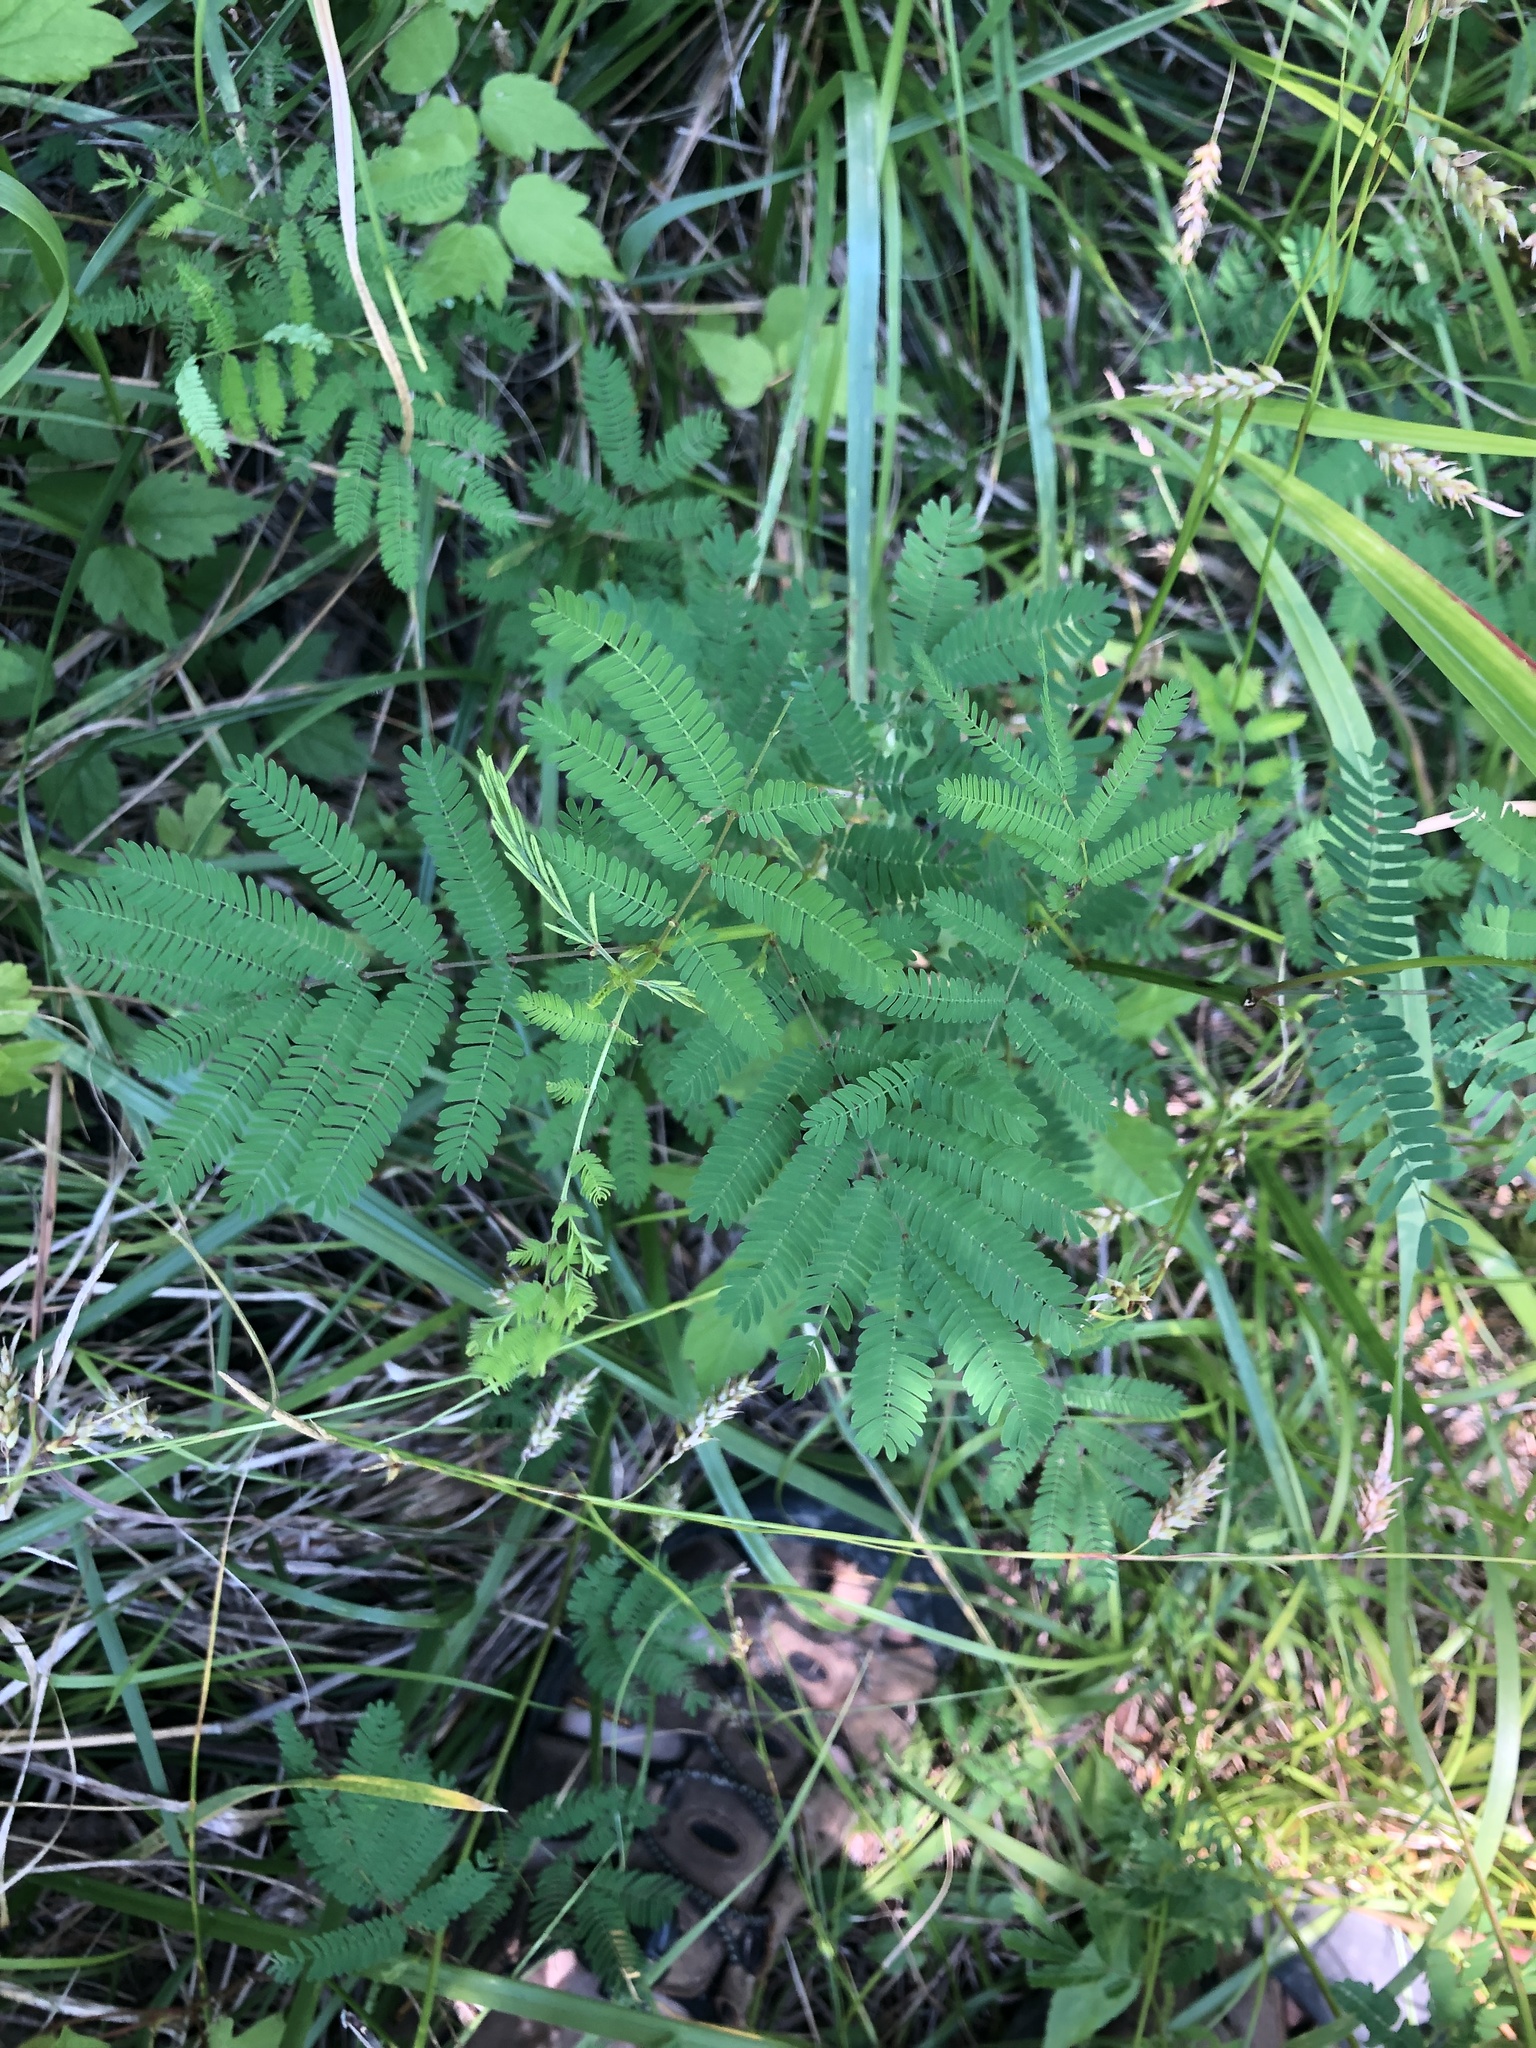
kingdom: Plantae
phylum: Tracheophyta
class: Magnoliopsida
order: Fabales
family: Fabaceae
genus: Desmanthus
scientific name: Desmanthus illinoensis
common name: Illinois bundle-flower
